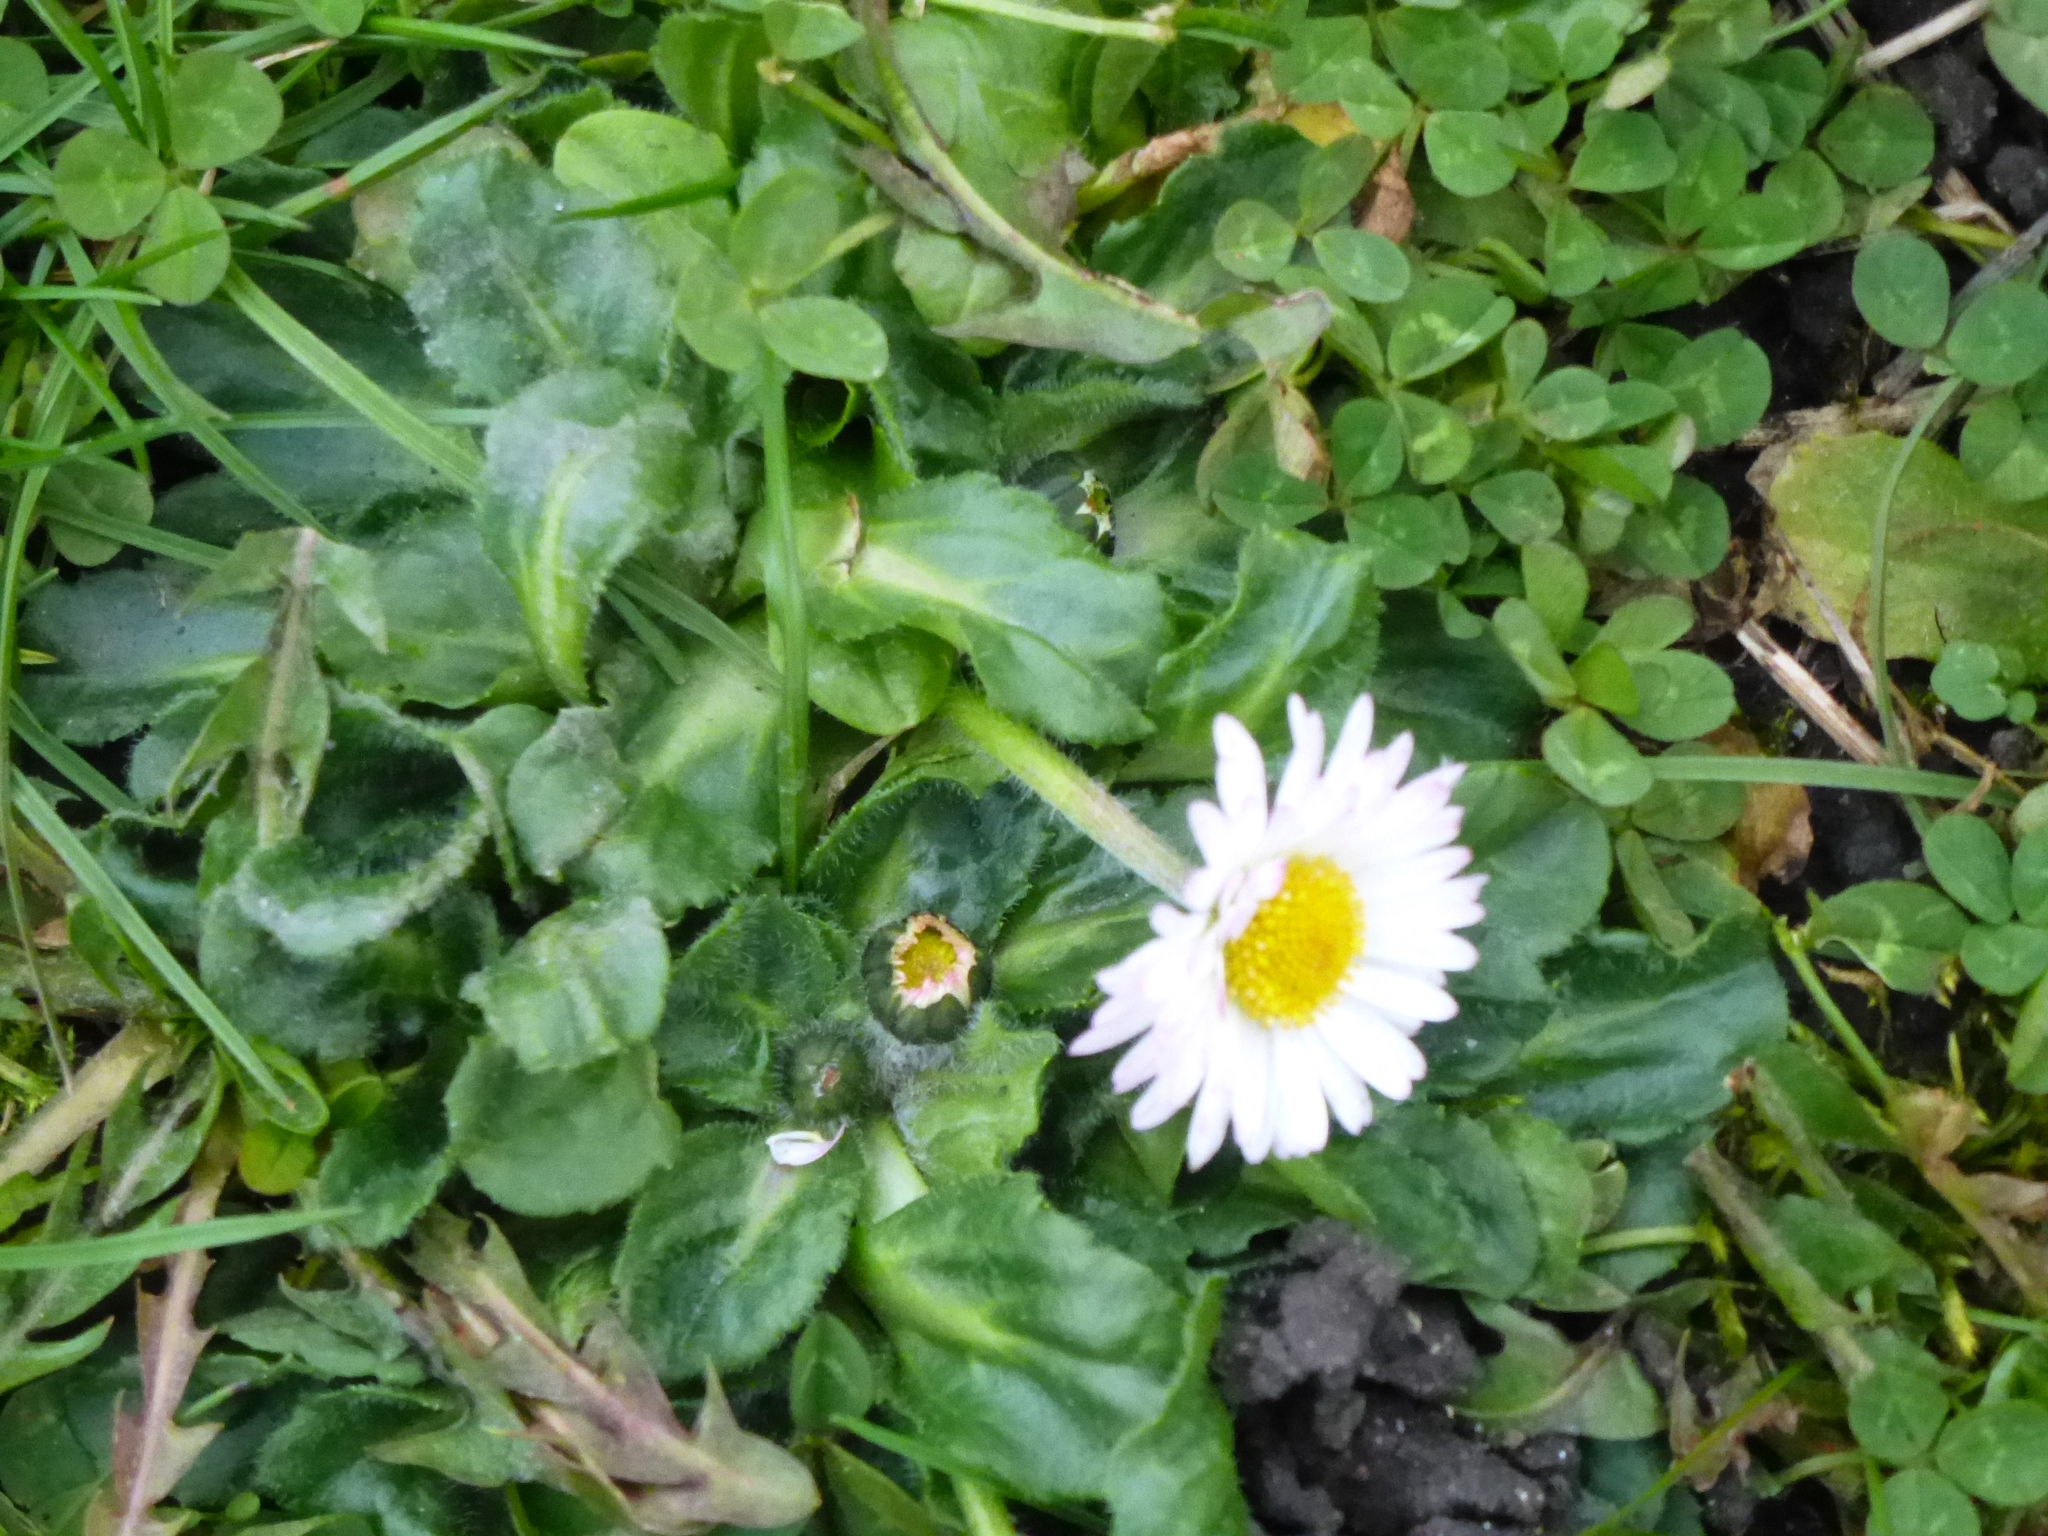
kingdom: Plantae
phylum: Tracheophyta
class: Magnoliopsida
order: Asterales
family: Asteraceae
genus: Bellis
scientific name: Bellis perennis
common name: Lawndaisy
